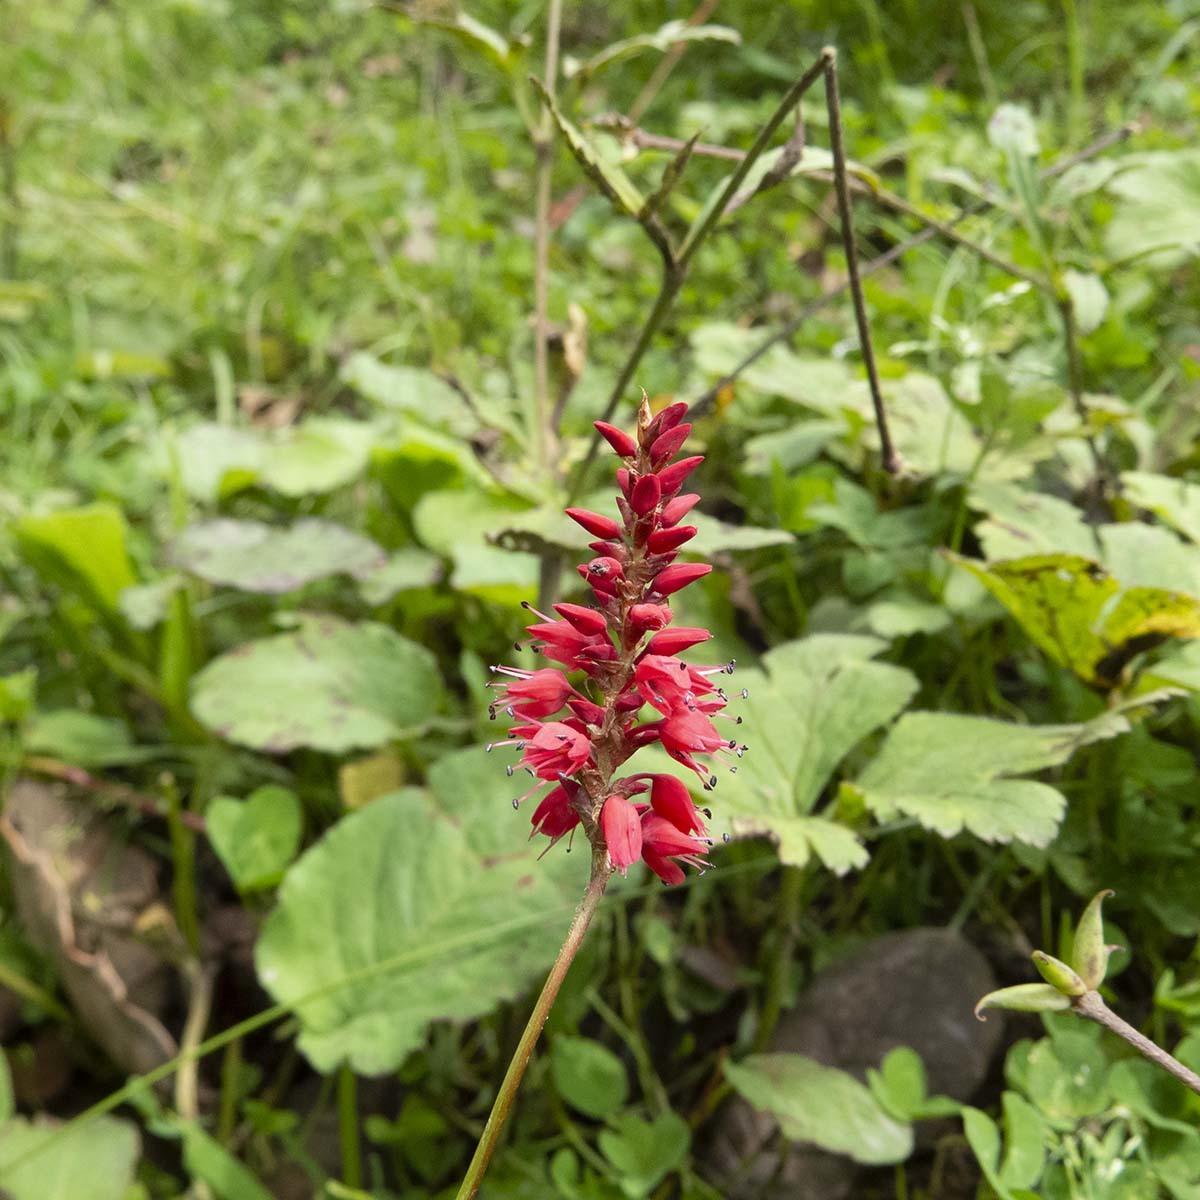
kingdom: Plantae
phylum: Tracheophyta
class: Magnoliopsida
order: Caryophyllales
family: Polygonaceae
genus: Bistorta
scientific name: Bistorta amplexicaulis
